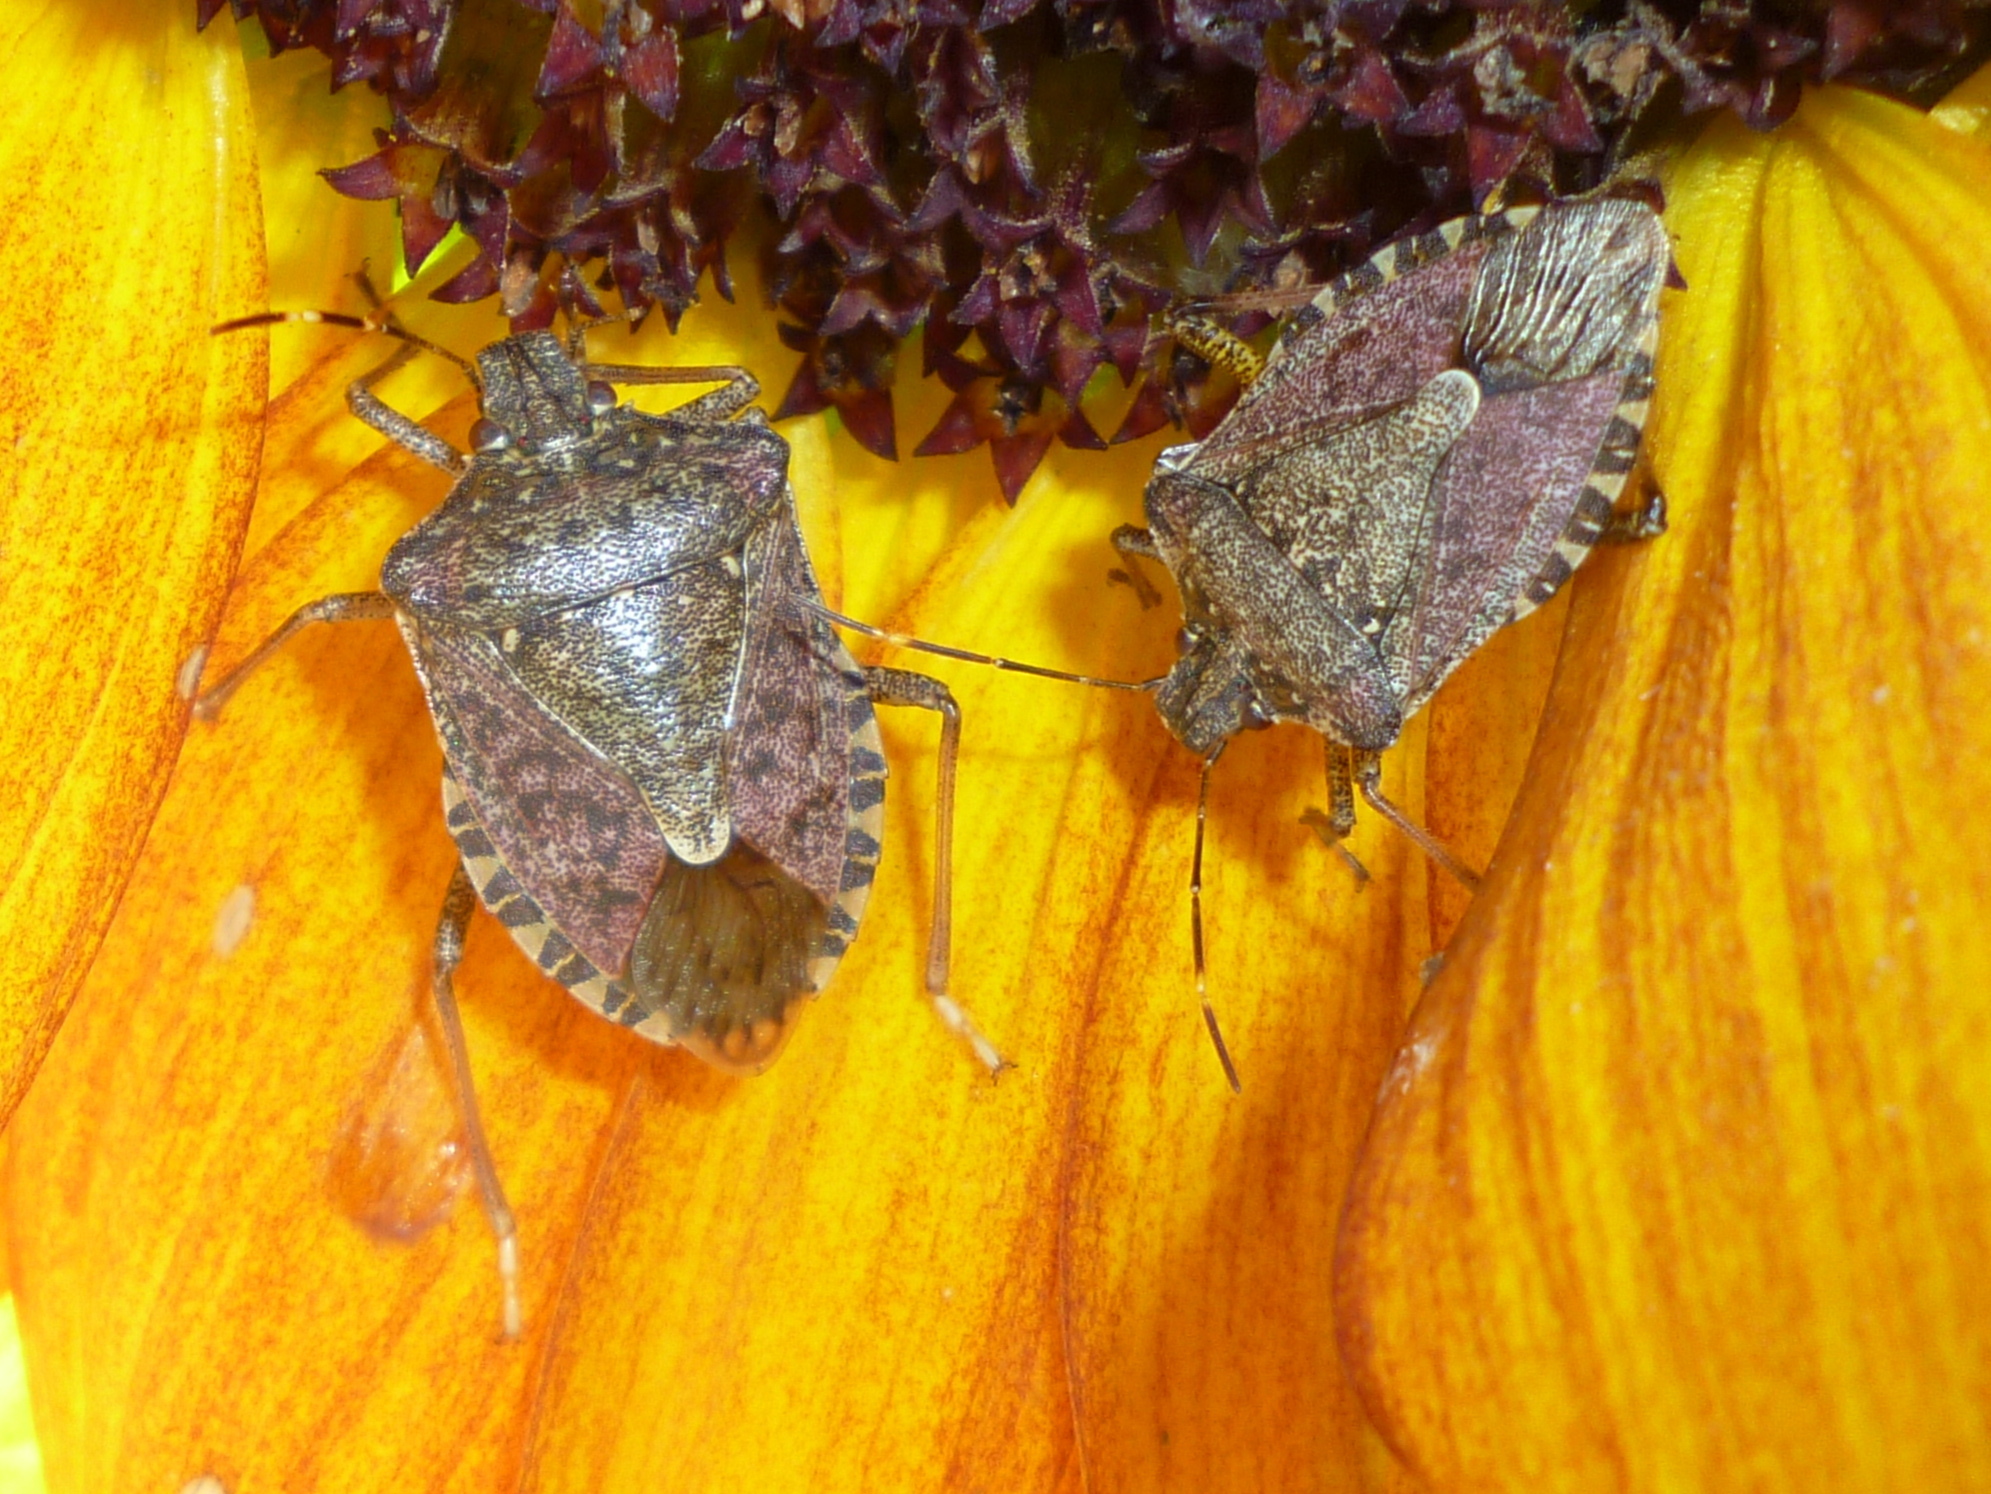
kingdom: Animalia
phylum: Arthropoda
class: Insecta
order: Hemiptera
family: Pentatomidae
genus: Halyomorpha
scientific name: Halyomorpha halys
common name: Brown marmorated stink bug
